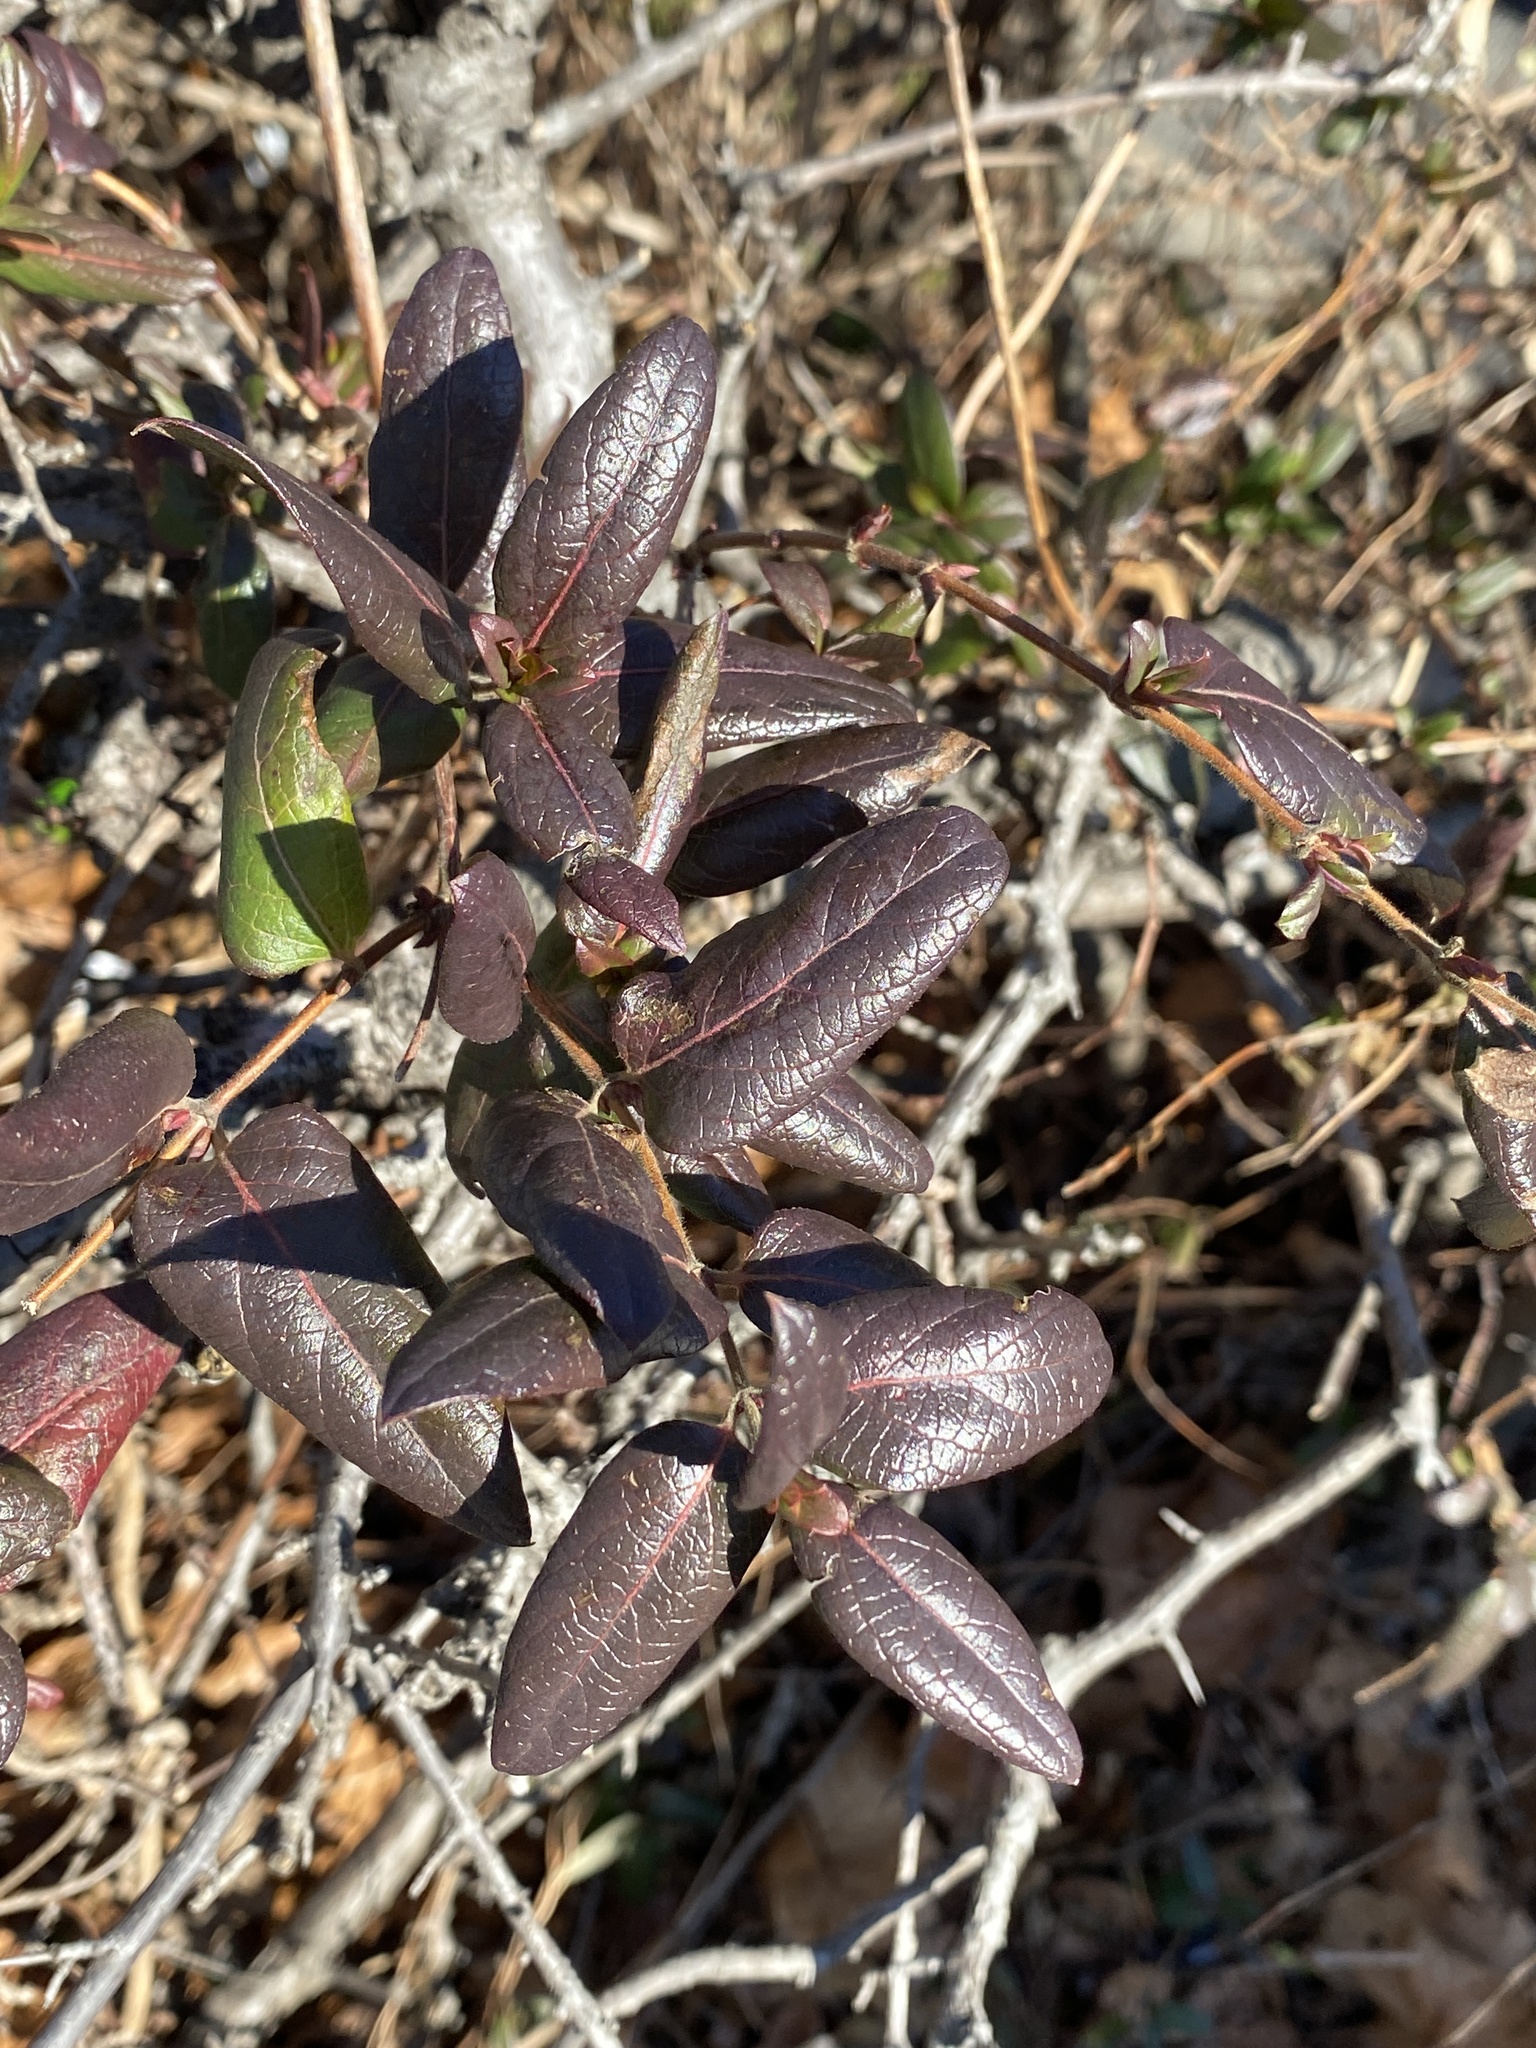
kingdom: Plantae
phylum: Tracheophyta
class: Magnoliopsida
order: Dipsacales
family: Caprifoliaceae
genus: Lonicera
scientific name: Lonicera japonica
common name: Japanese honeysuckle
